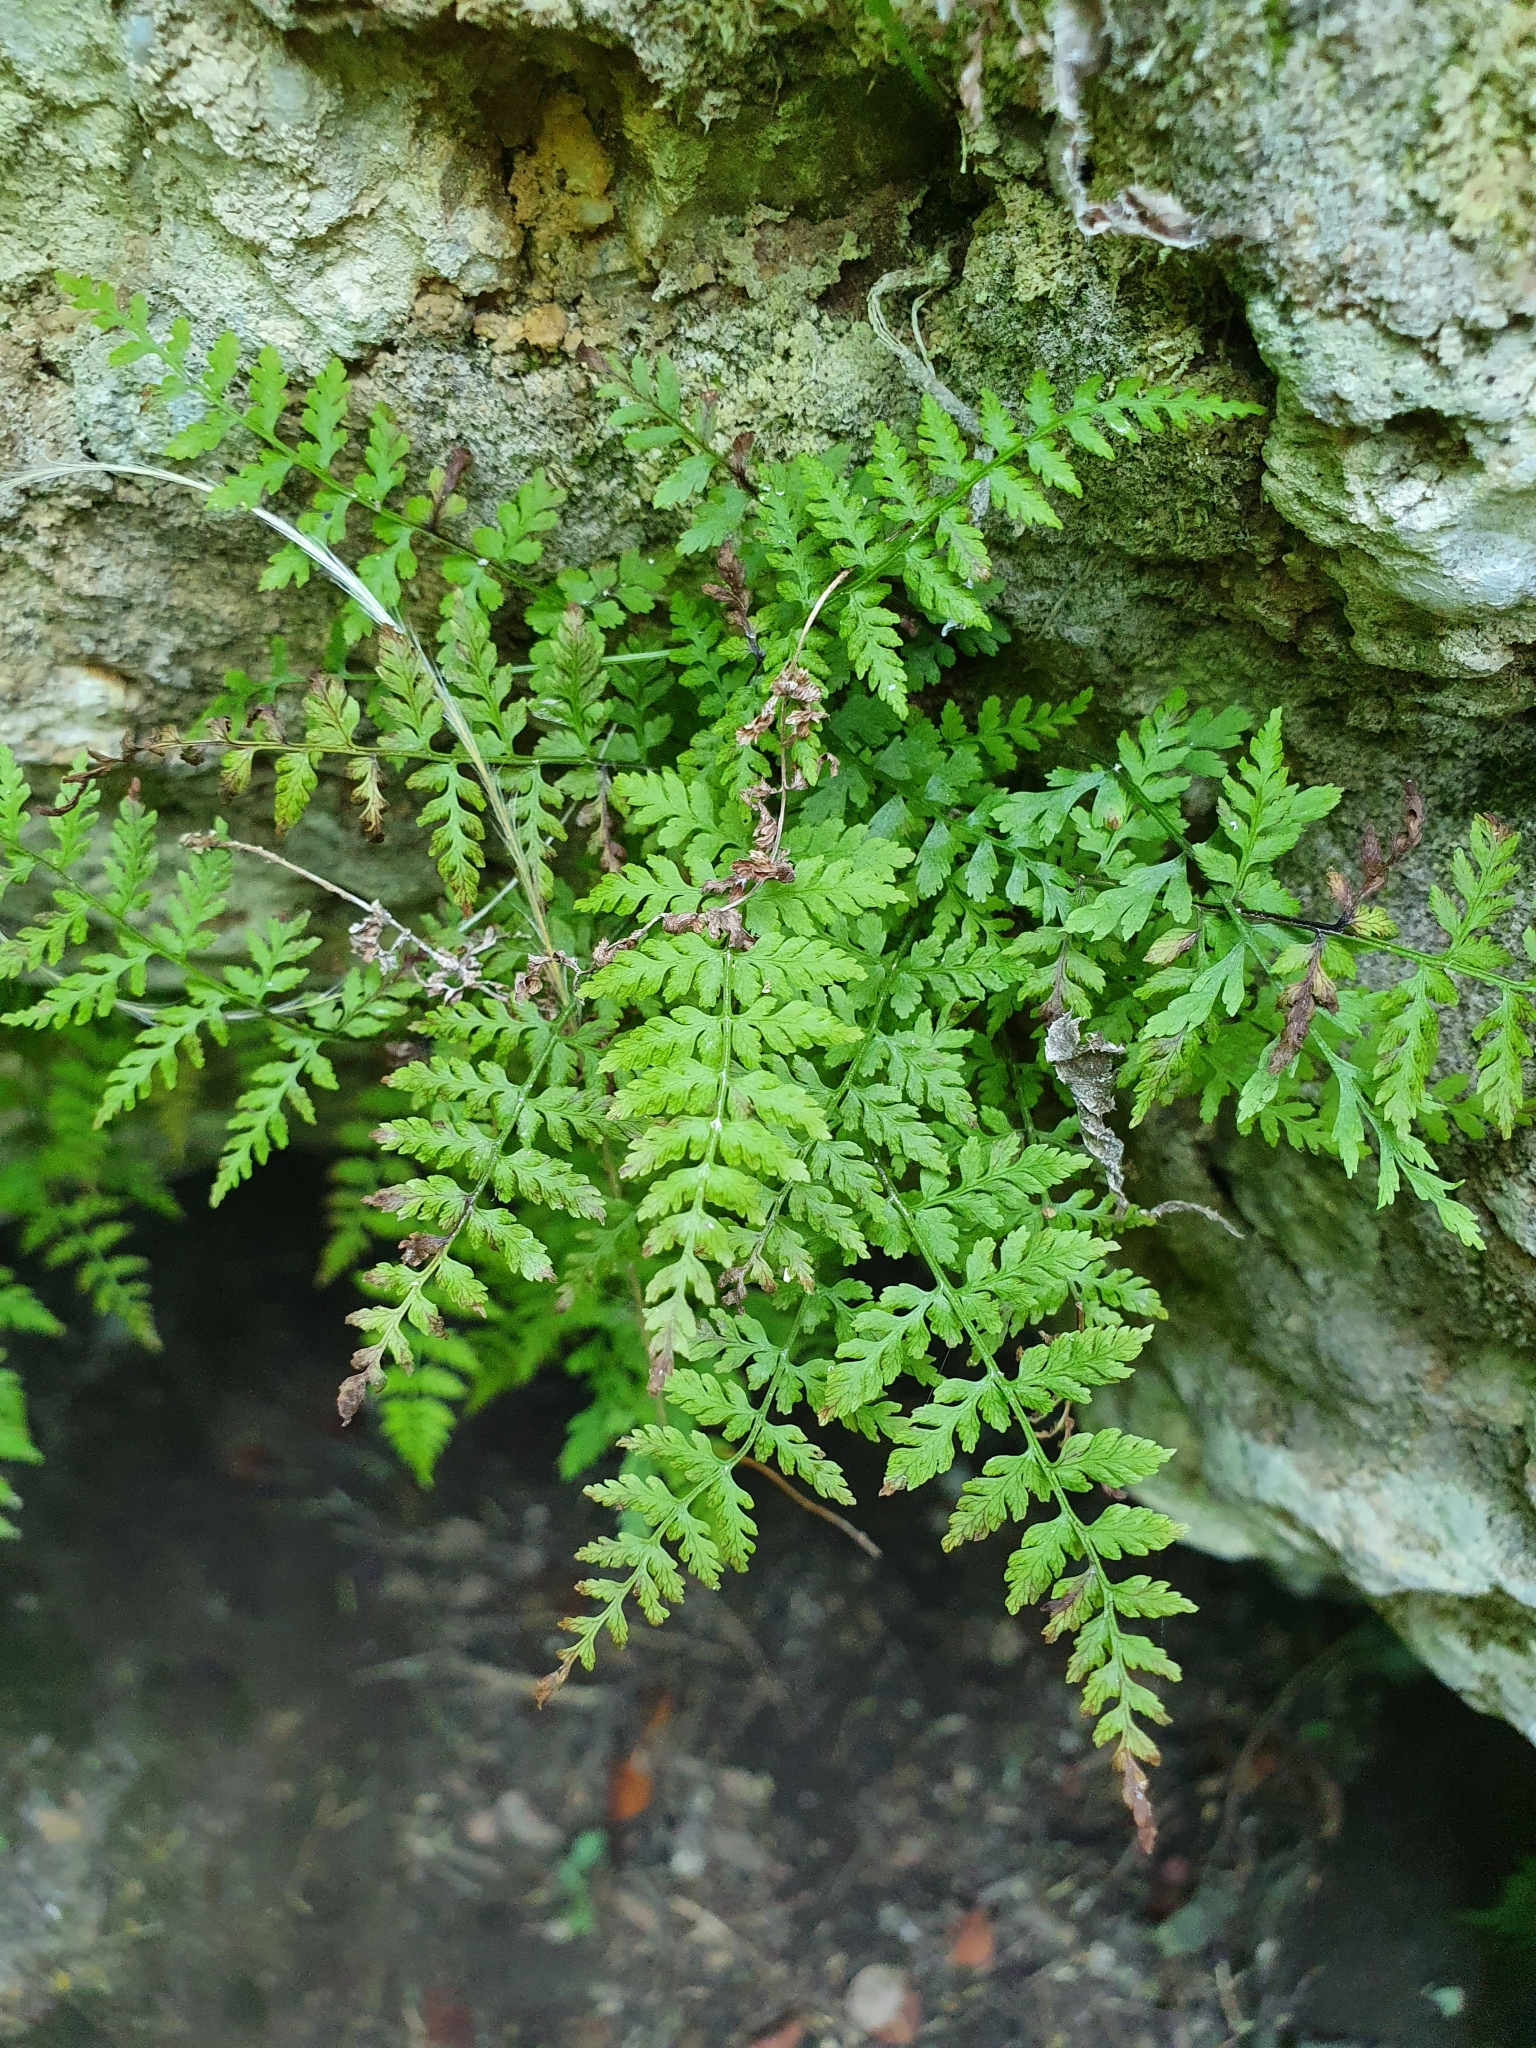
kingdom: Plantae
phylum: Tracheophyta
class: Polypodiopsida
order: Polypodiales
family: Cystopteridaceae
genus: Cystopteris
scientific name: Cystopteris fragilis
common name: Brittle bladder fern
